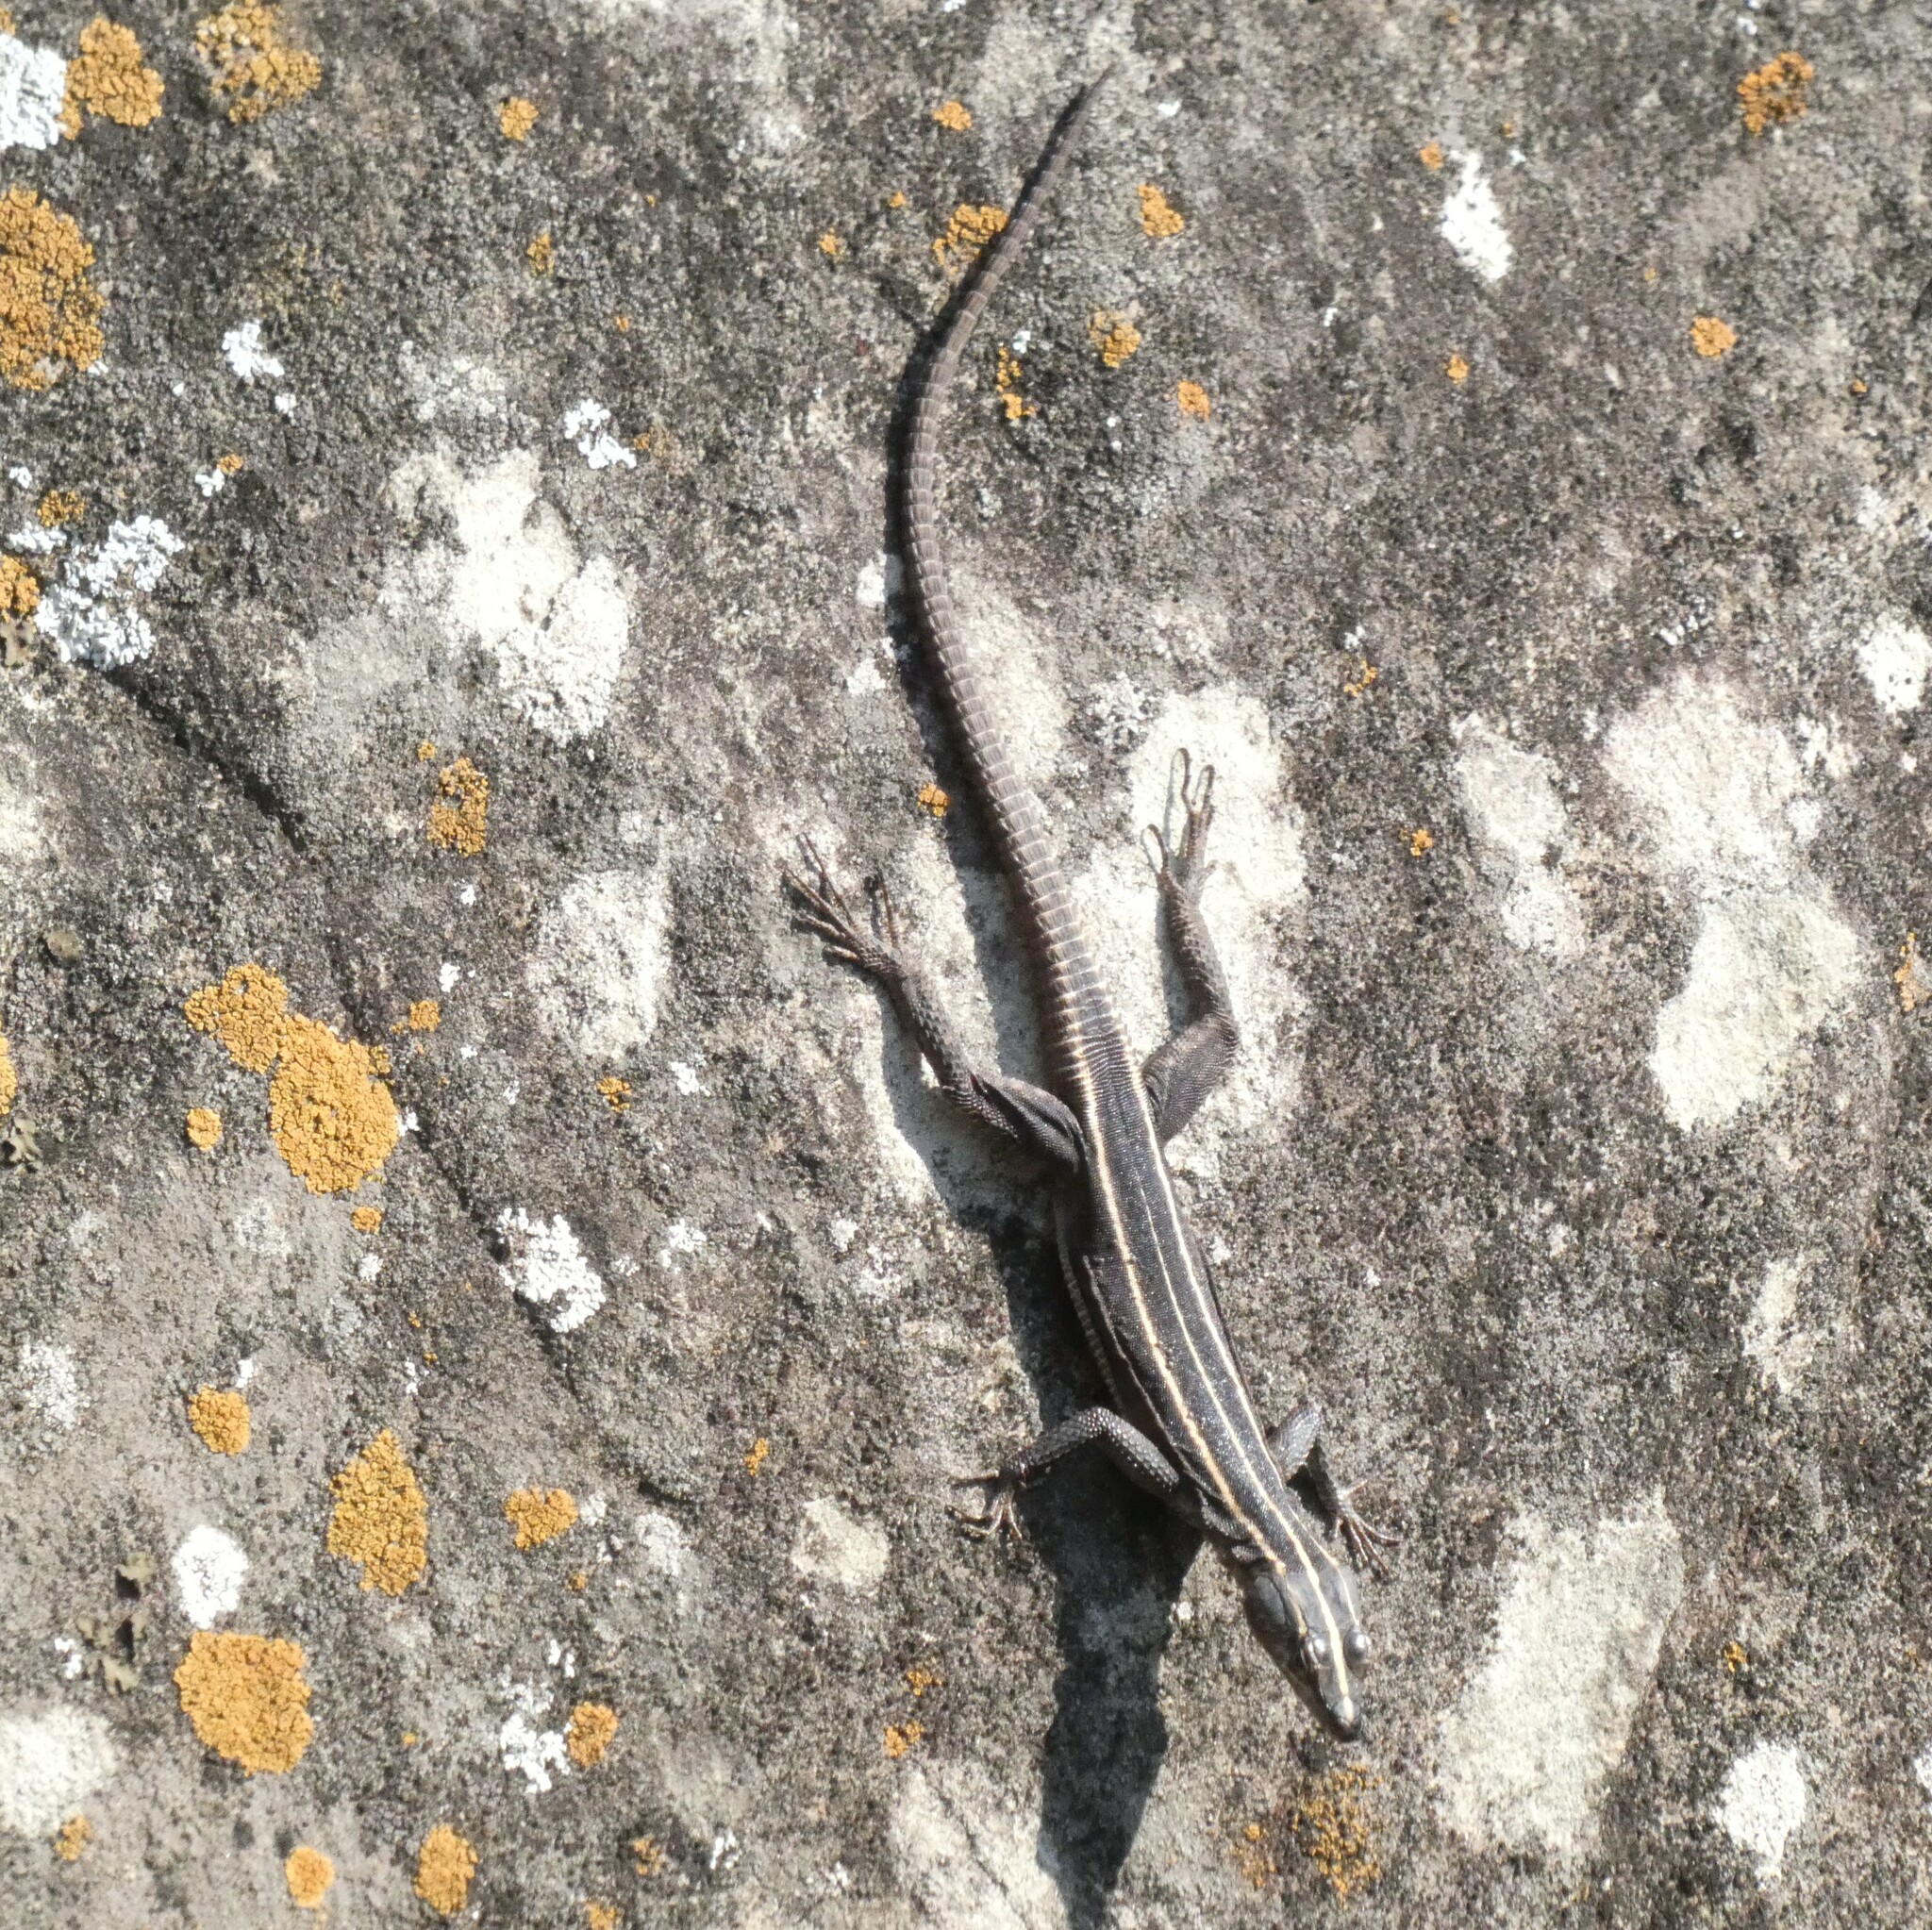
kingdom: Animalia
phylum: Chordata
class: Squamata
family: Cordylidae
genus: Platysaurus
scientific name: Platysaurus intermedius
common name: Common flat lizard
